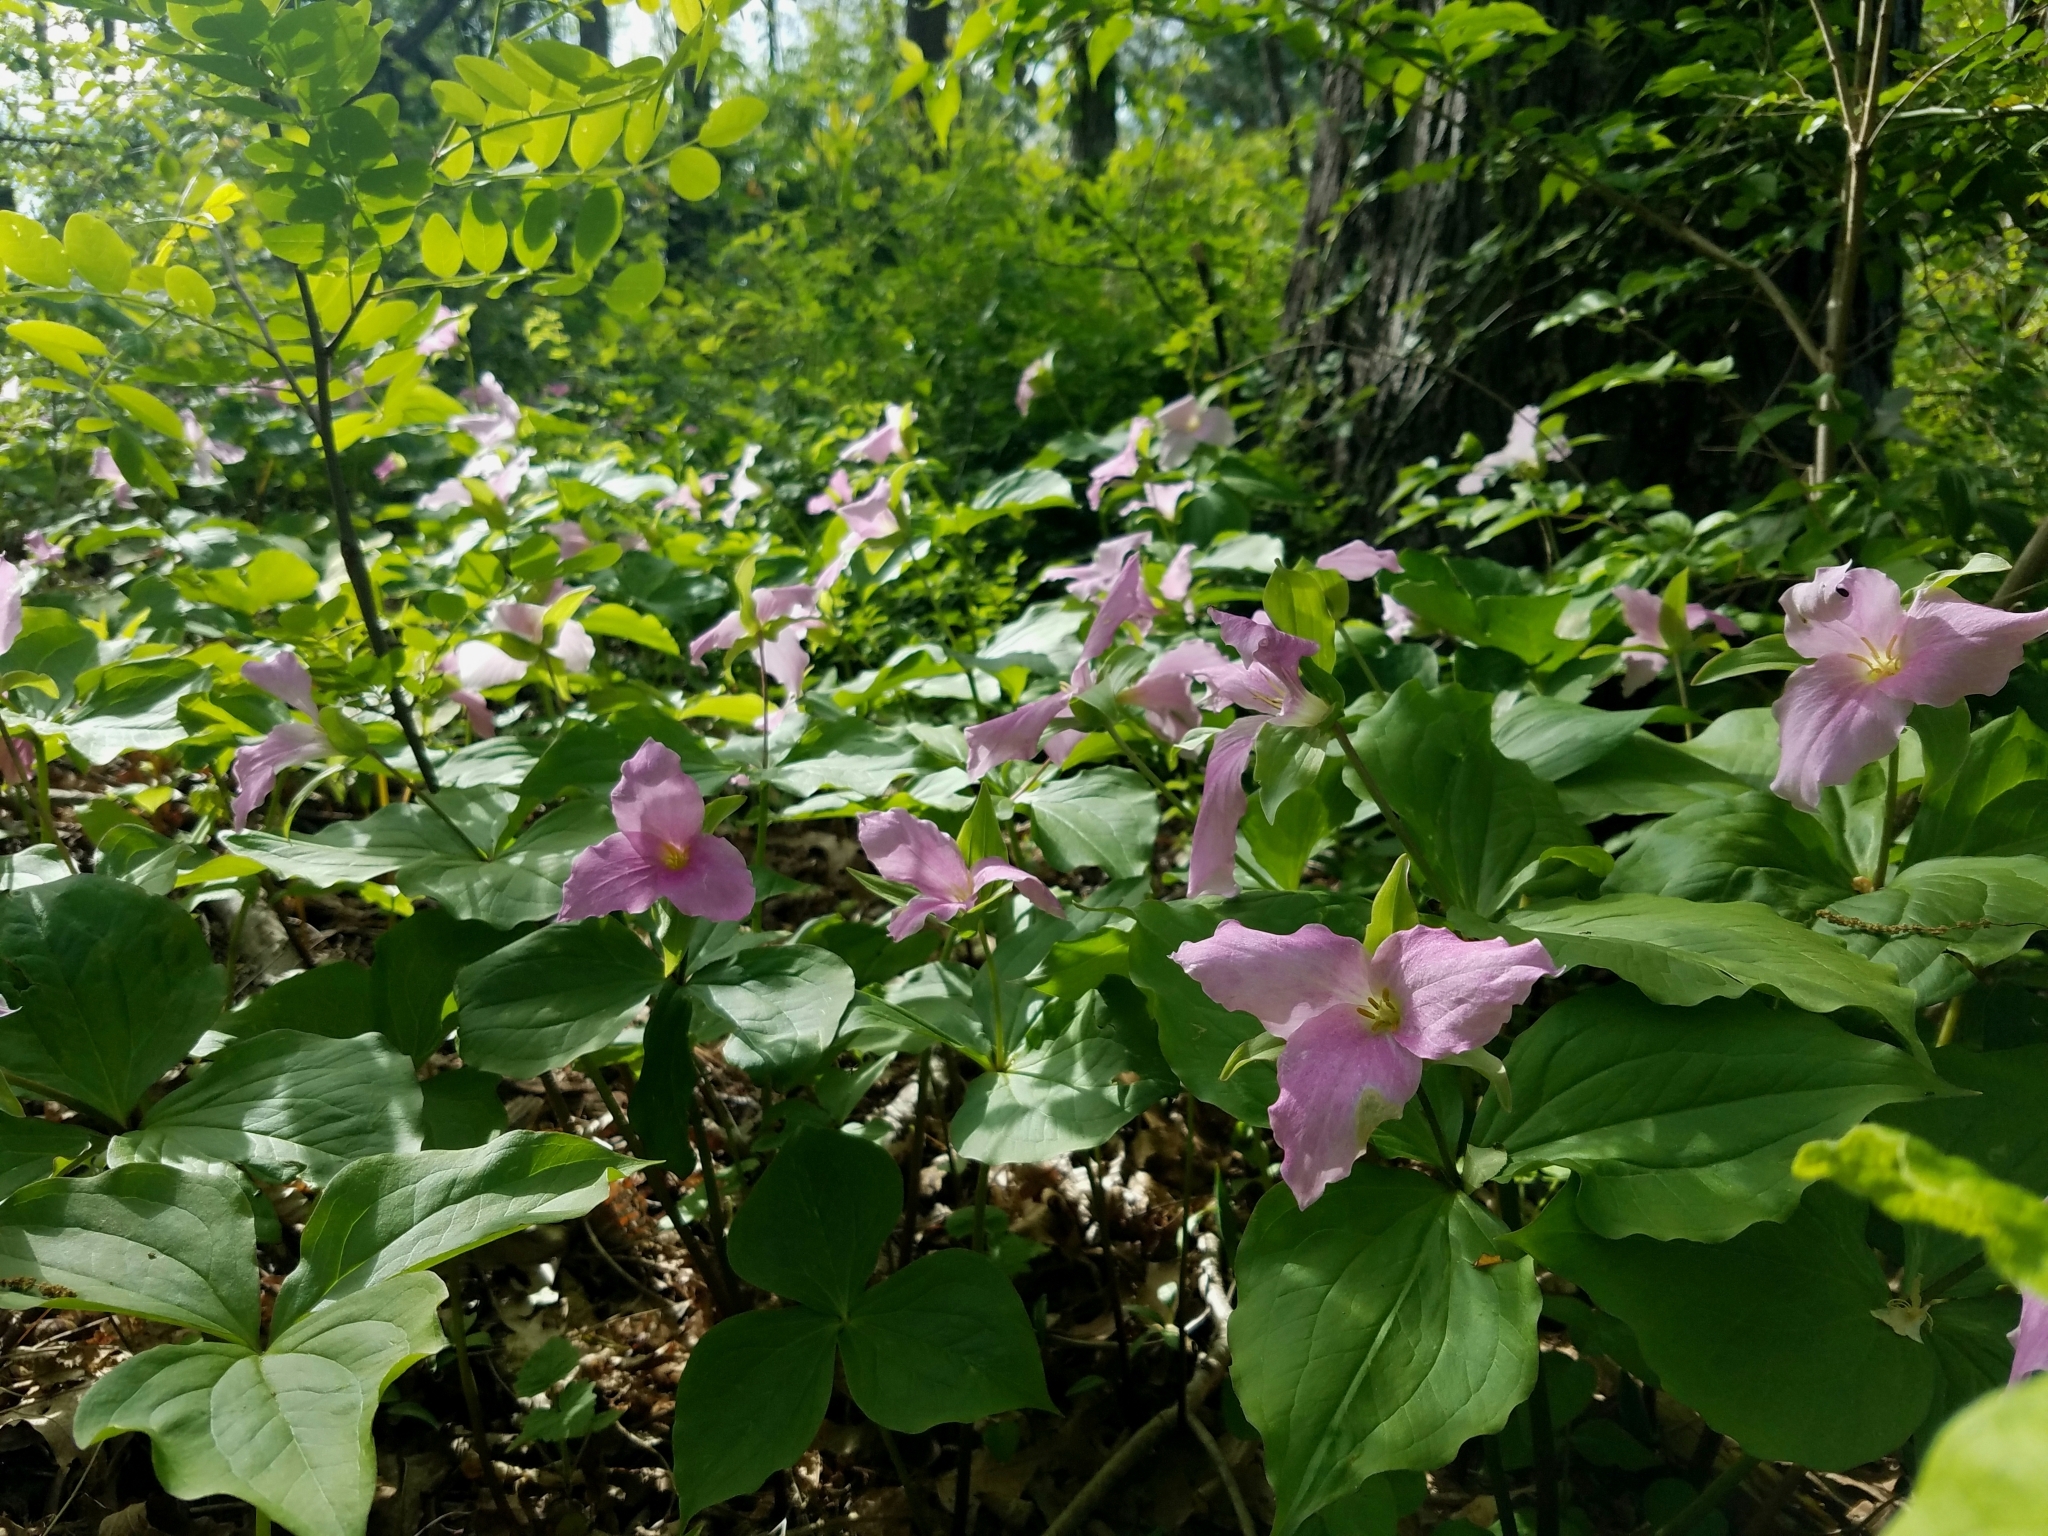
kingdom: Plantae
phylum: Tracheophyta
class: Liliopsida
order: Liliales
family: Melanthiaceae
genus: Trillium
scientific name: Trillium grandiflorum
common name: Great white trillium
